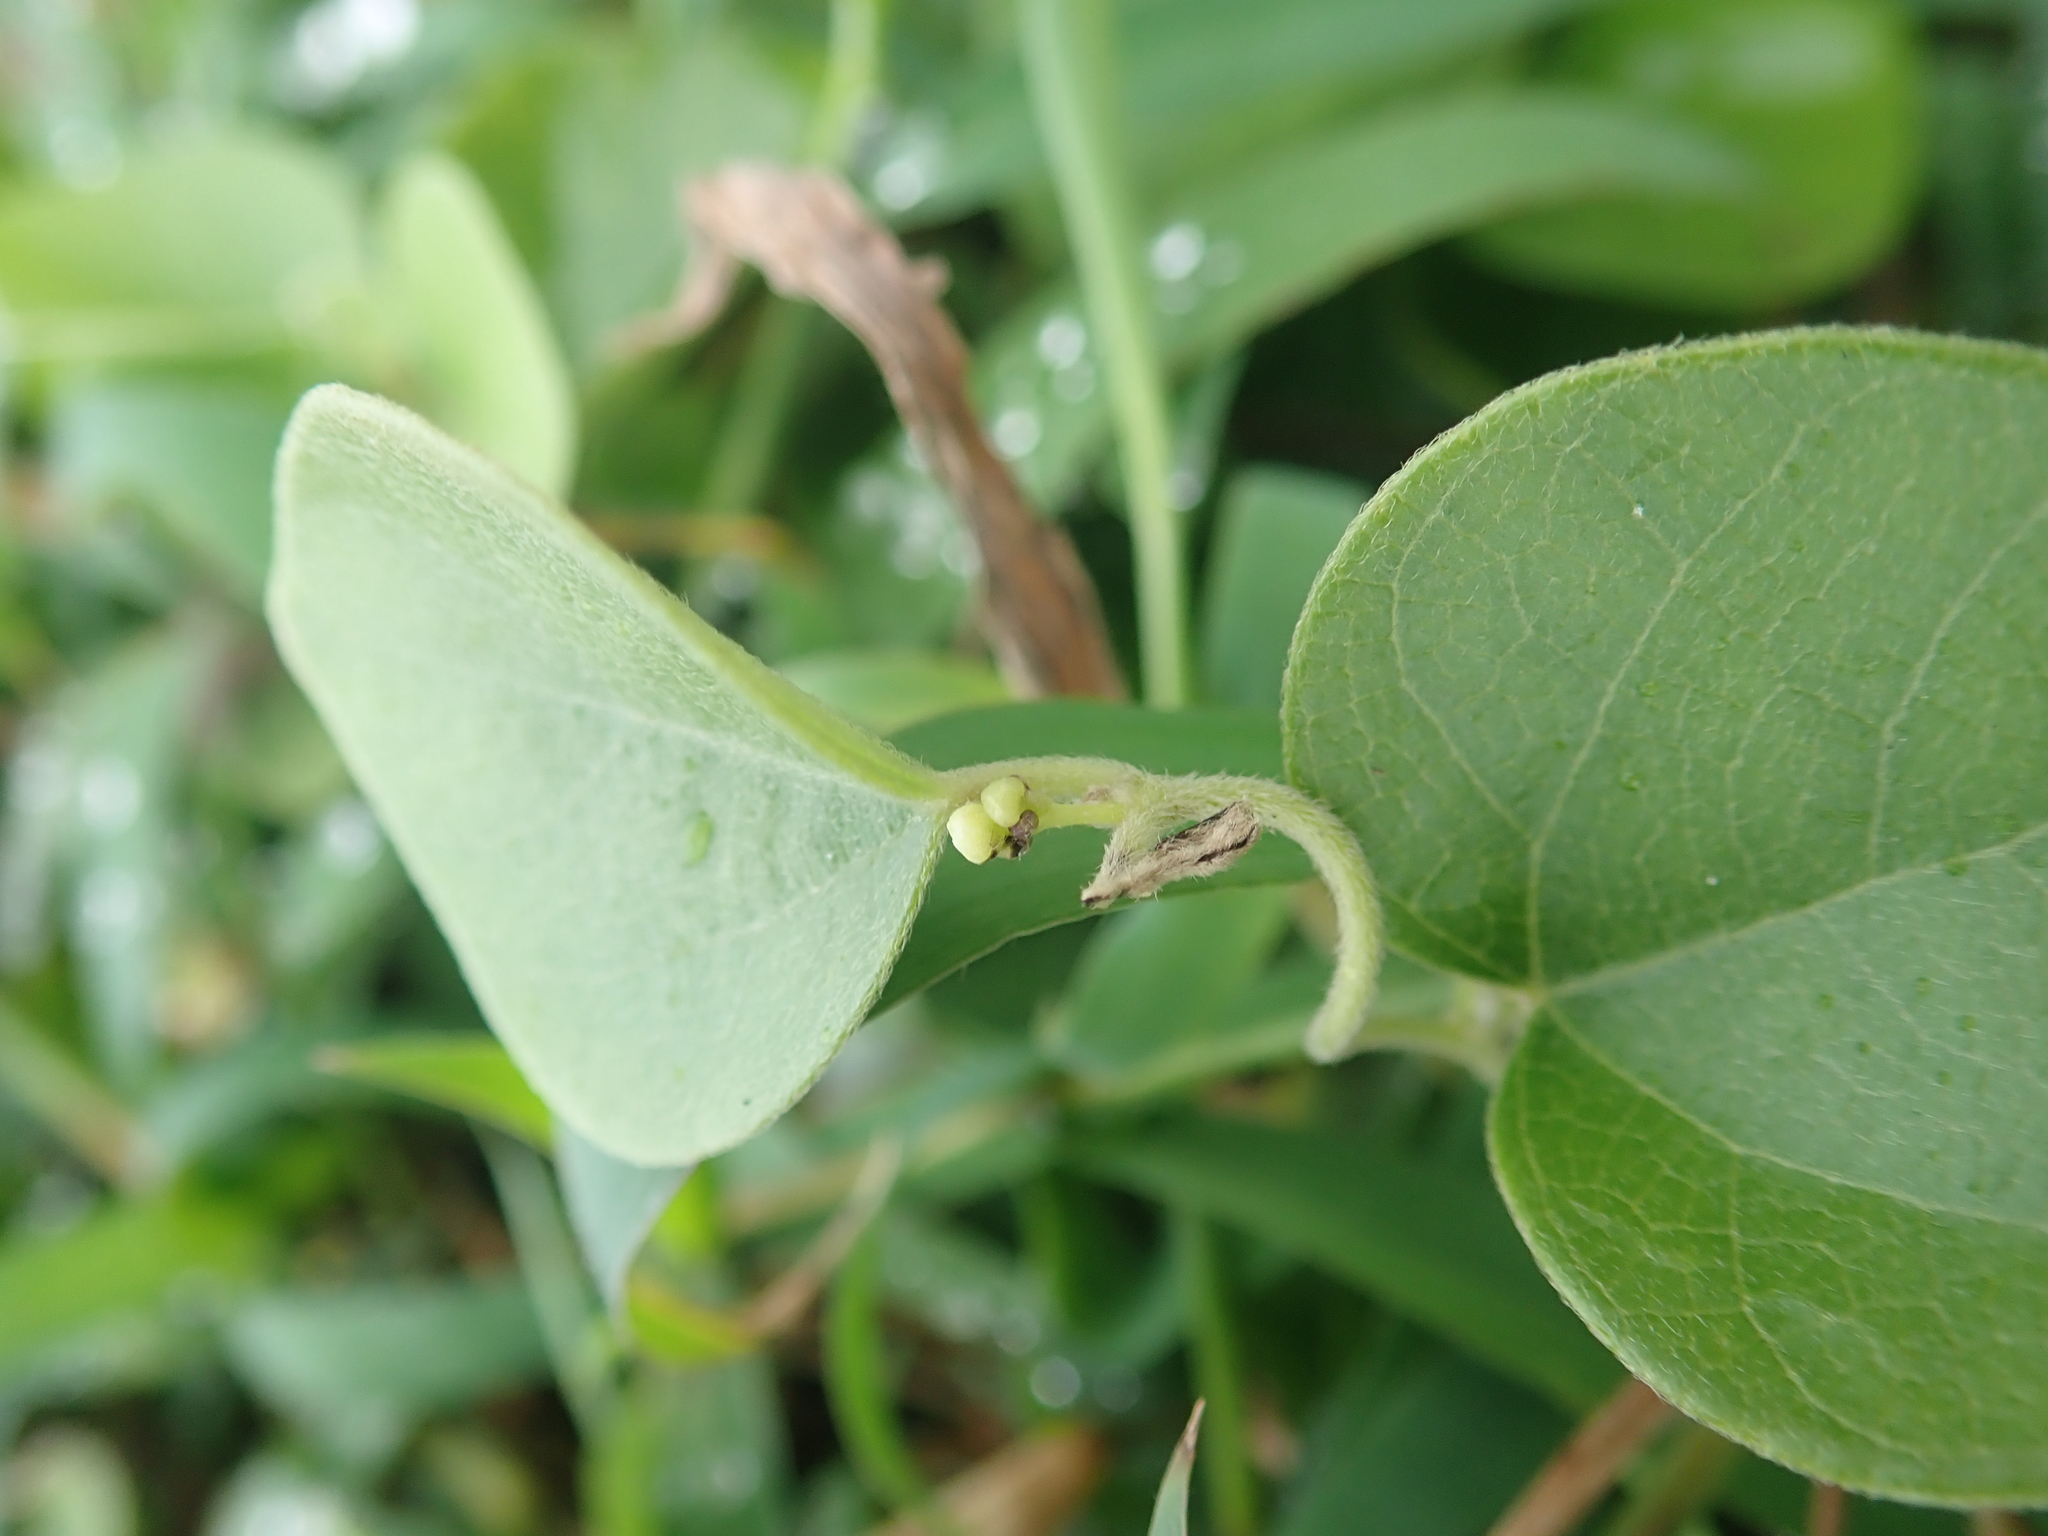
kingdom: Plantae
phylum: Tracheophyta
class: Magnoliopsida
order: Ranunculales
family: Menispermaceae
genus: Cocculus
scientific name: Cocculus orbiculatus
